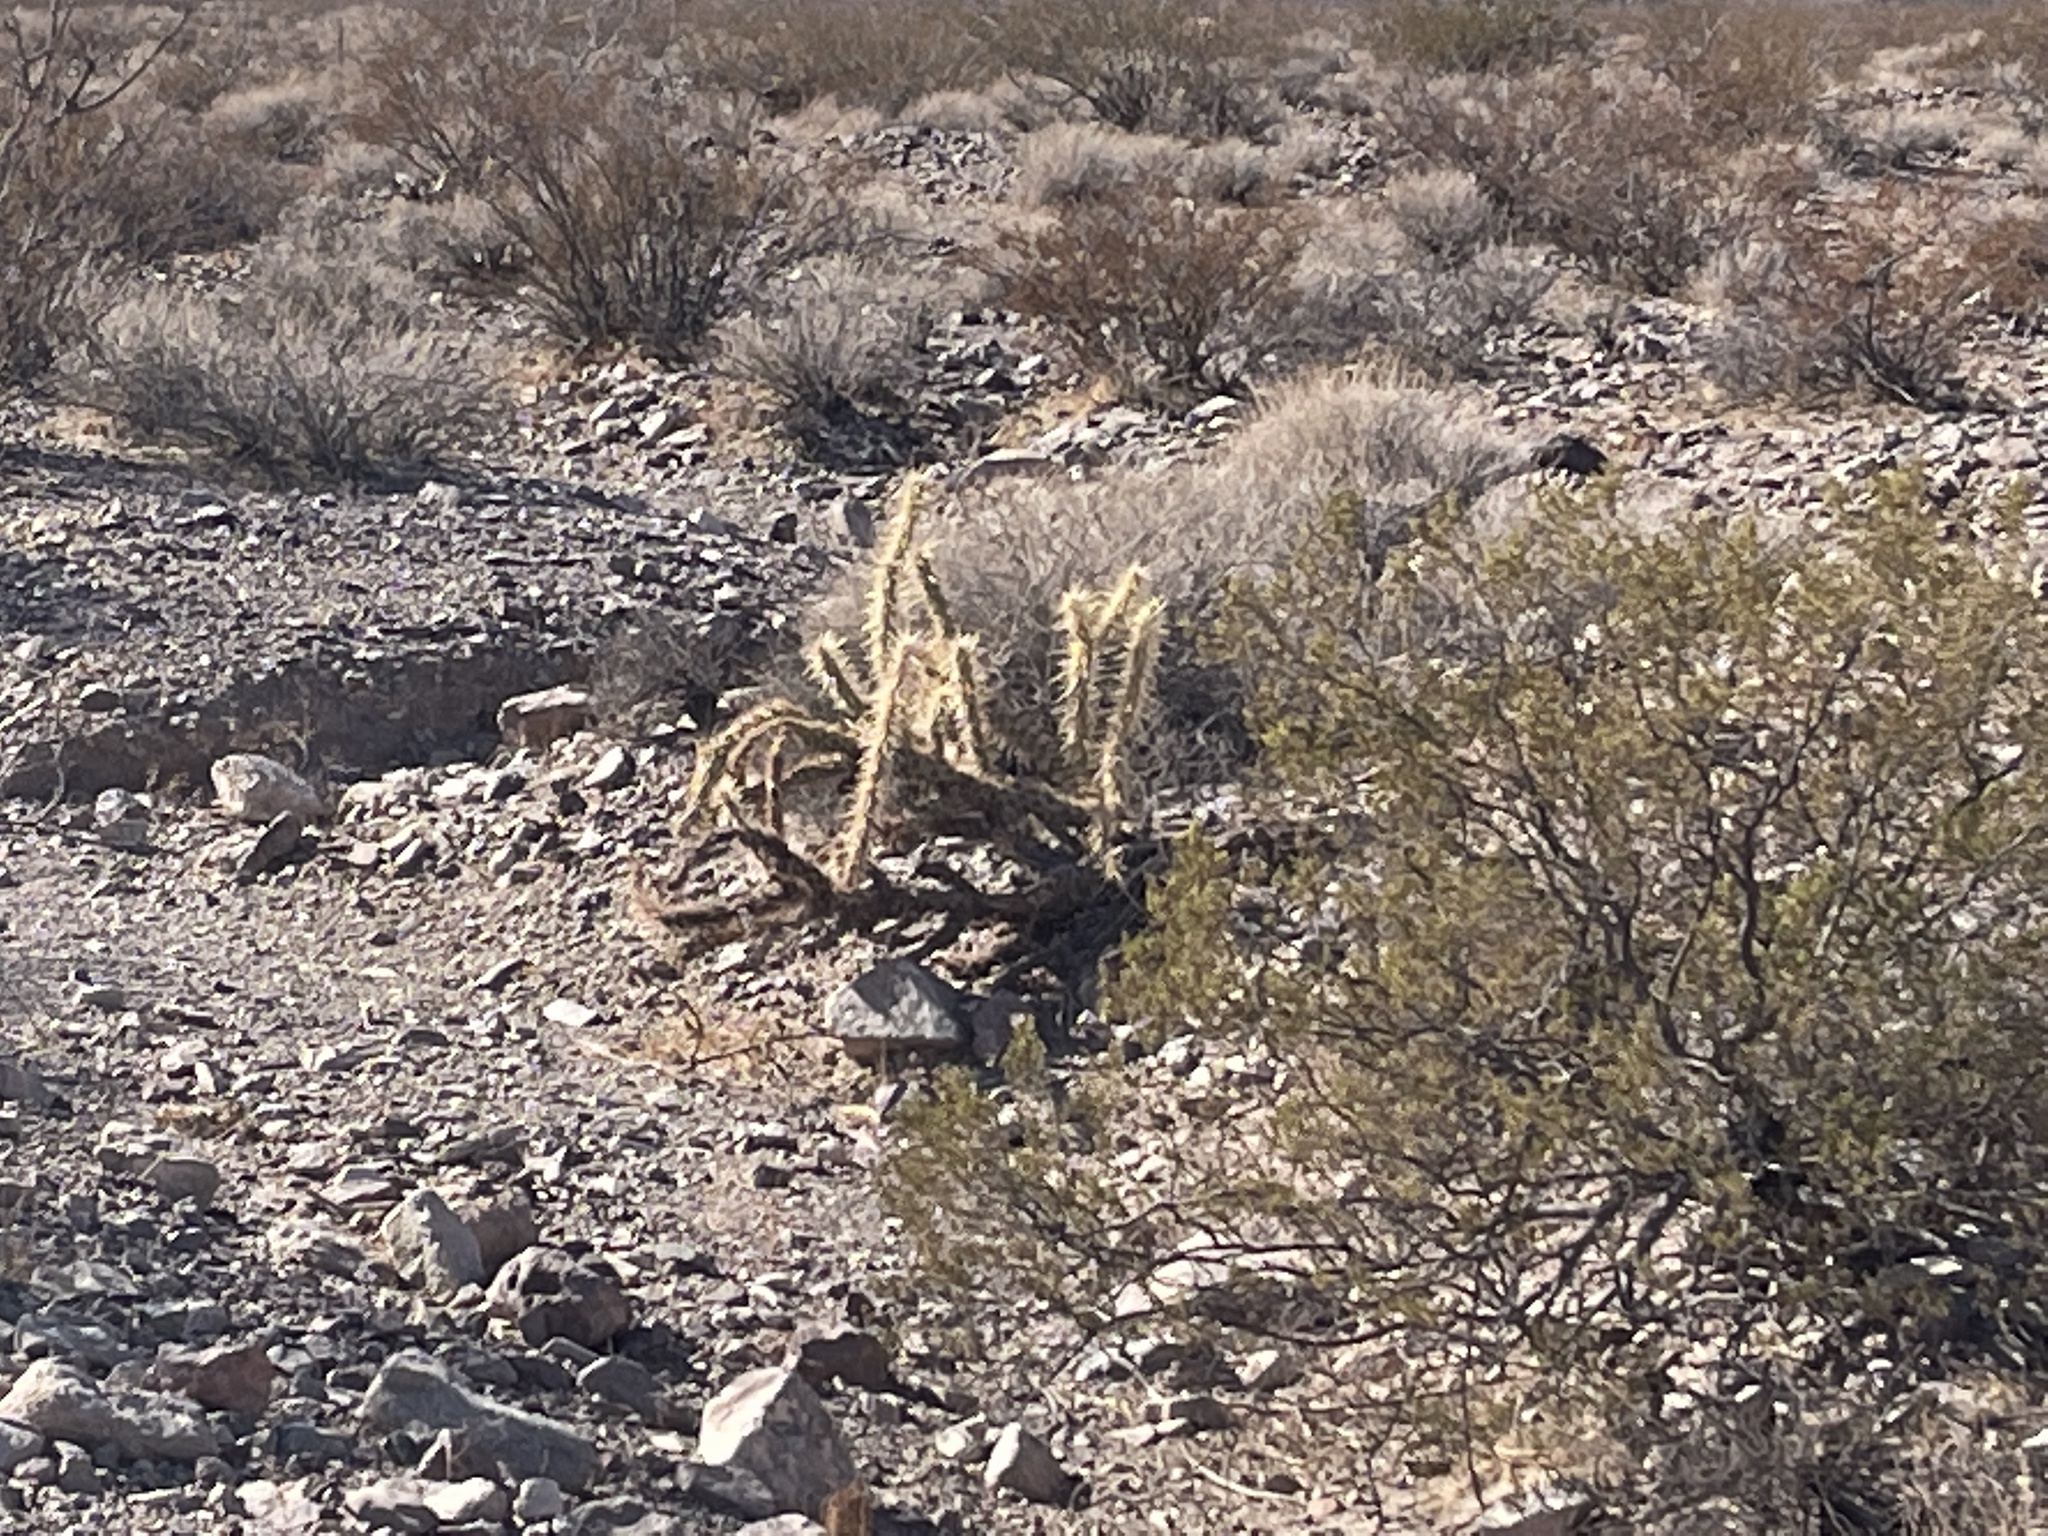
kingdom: Plantae
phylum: Tracheophyta
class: Magnoliopsida
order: Caryophyllales
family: Cactaceae
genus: Cylindropuntia
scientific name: Cylindropuntia acanthocarpa
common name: Buckhorn cholla
